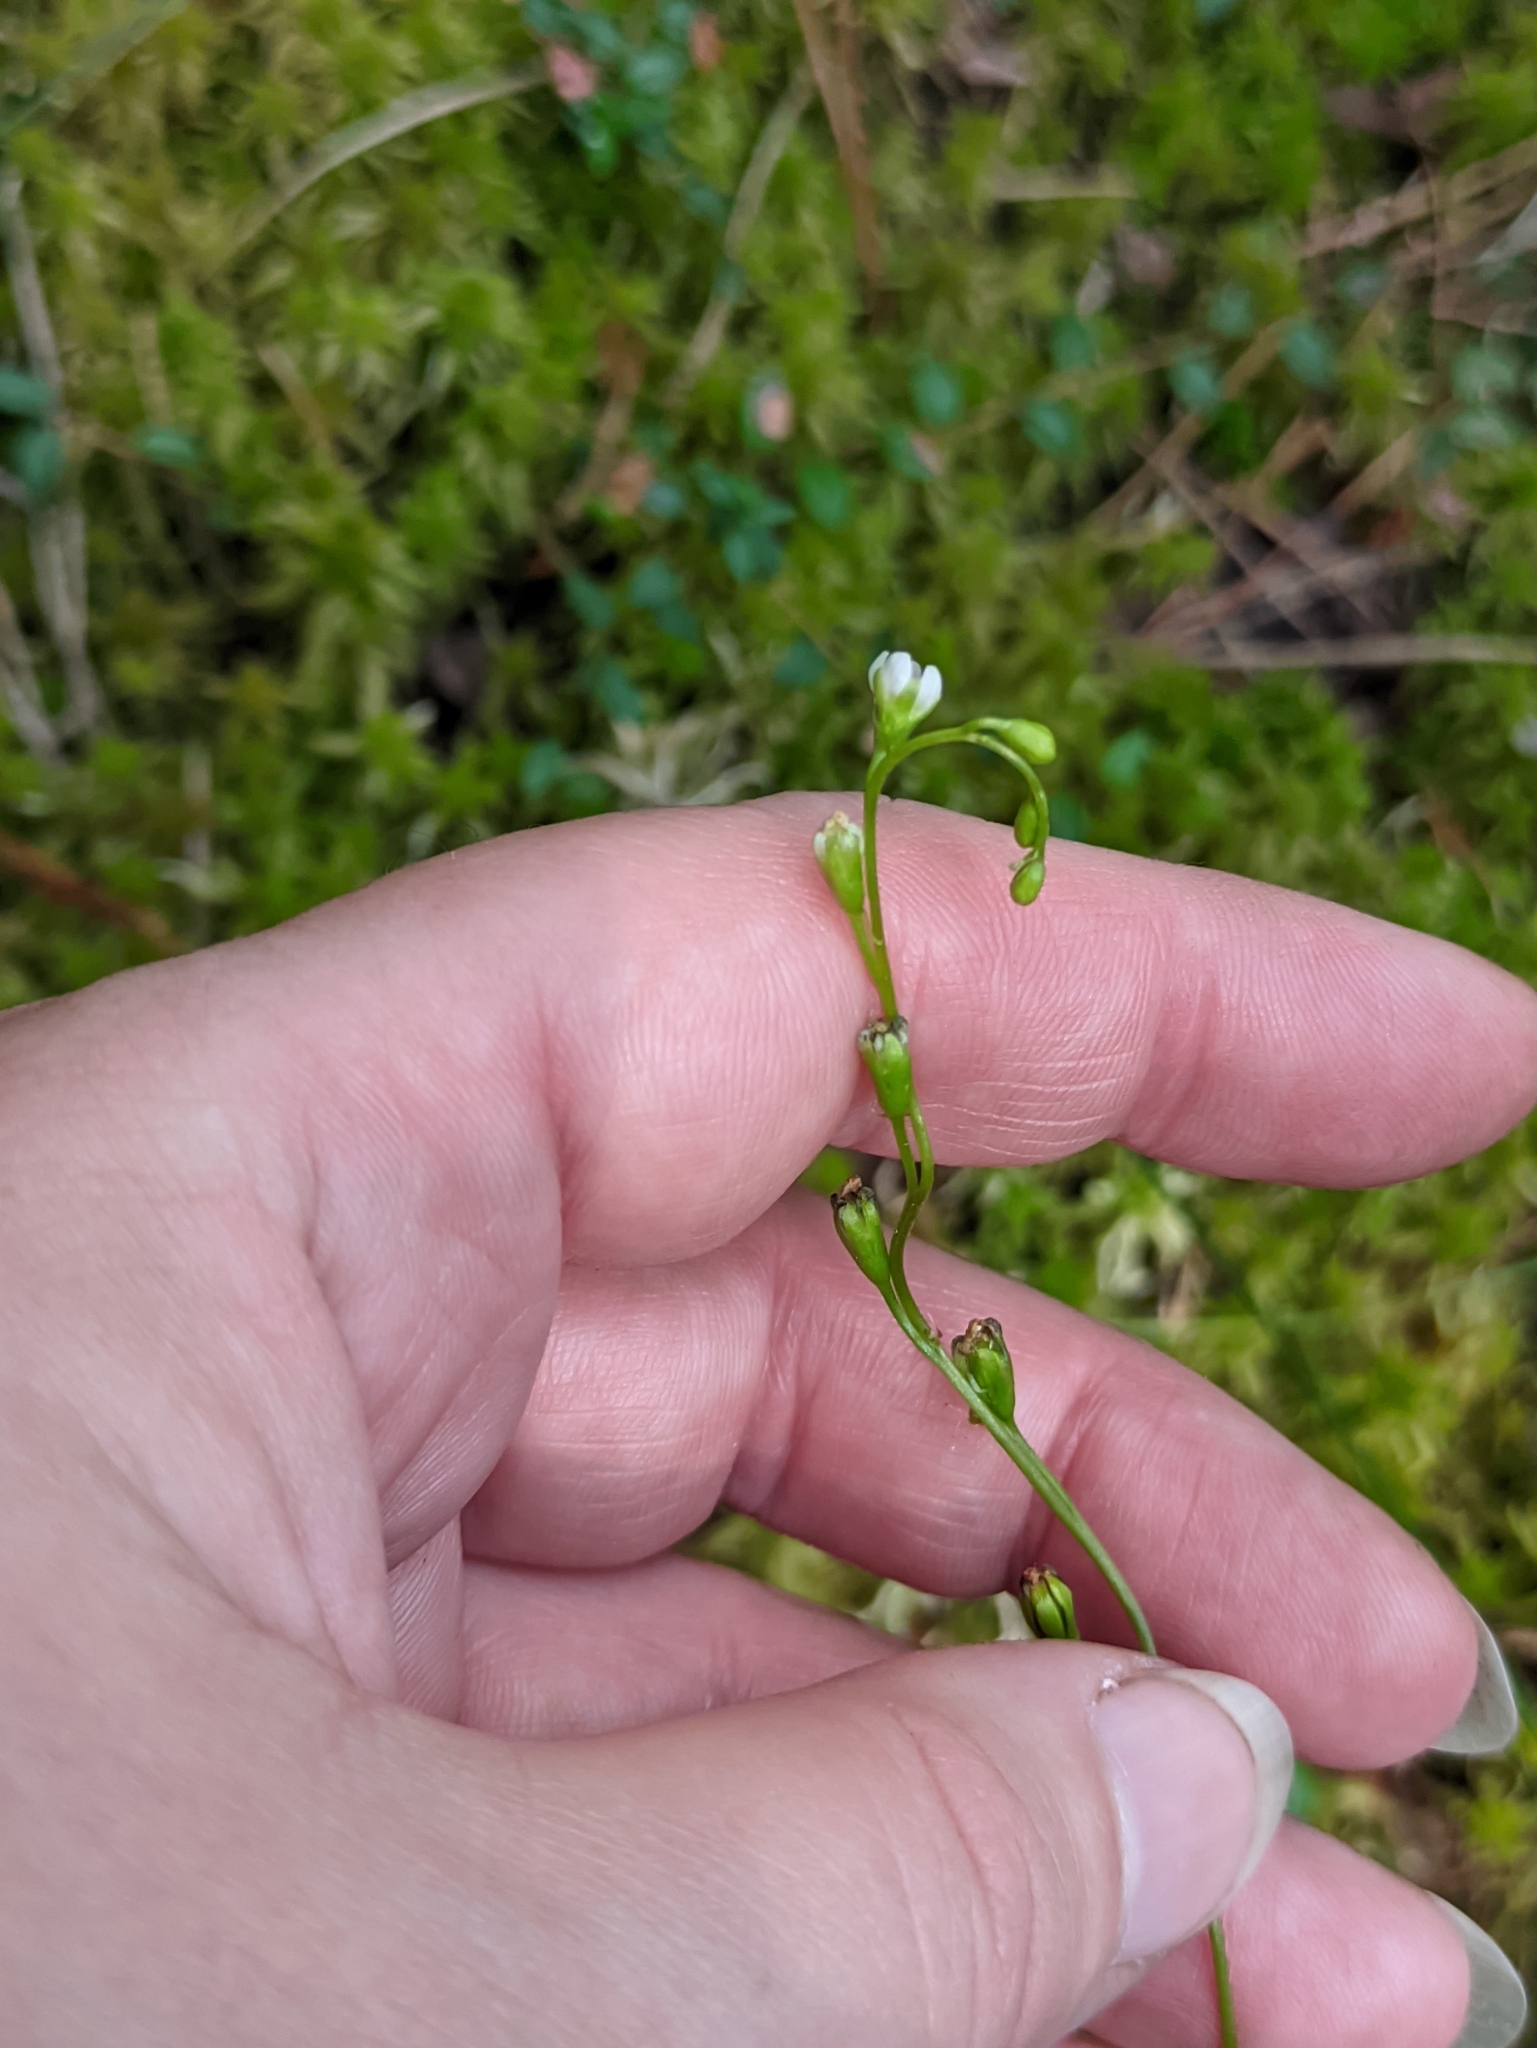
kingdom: Plantae
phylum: Tracheophyta
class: Magnoliopsida
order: Caryophyllales
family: Droseraceae
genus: Drosera
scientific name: Drosera rotundifolia
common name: Round-leaved sundew
